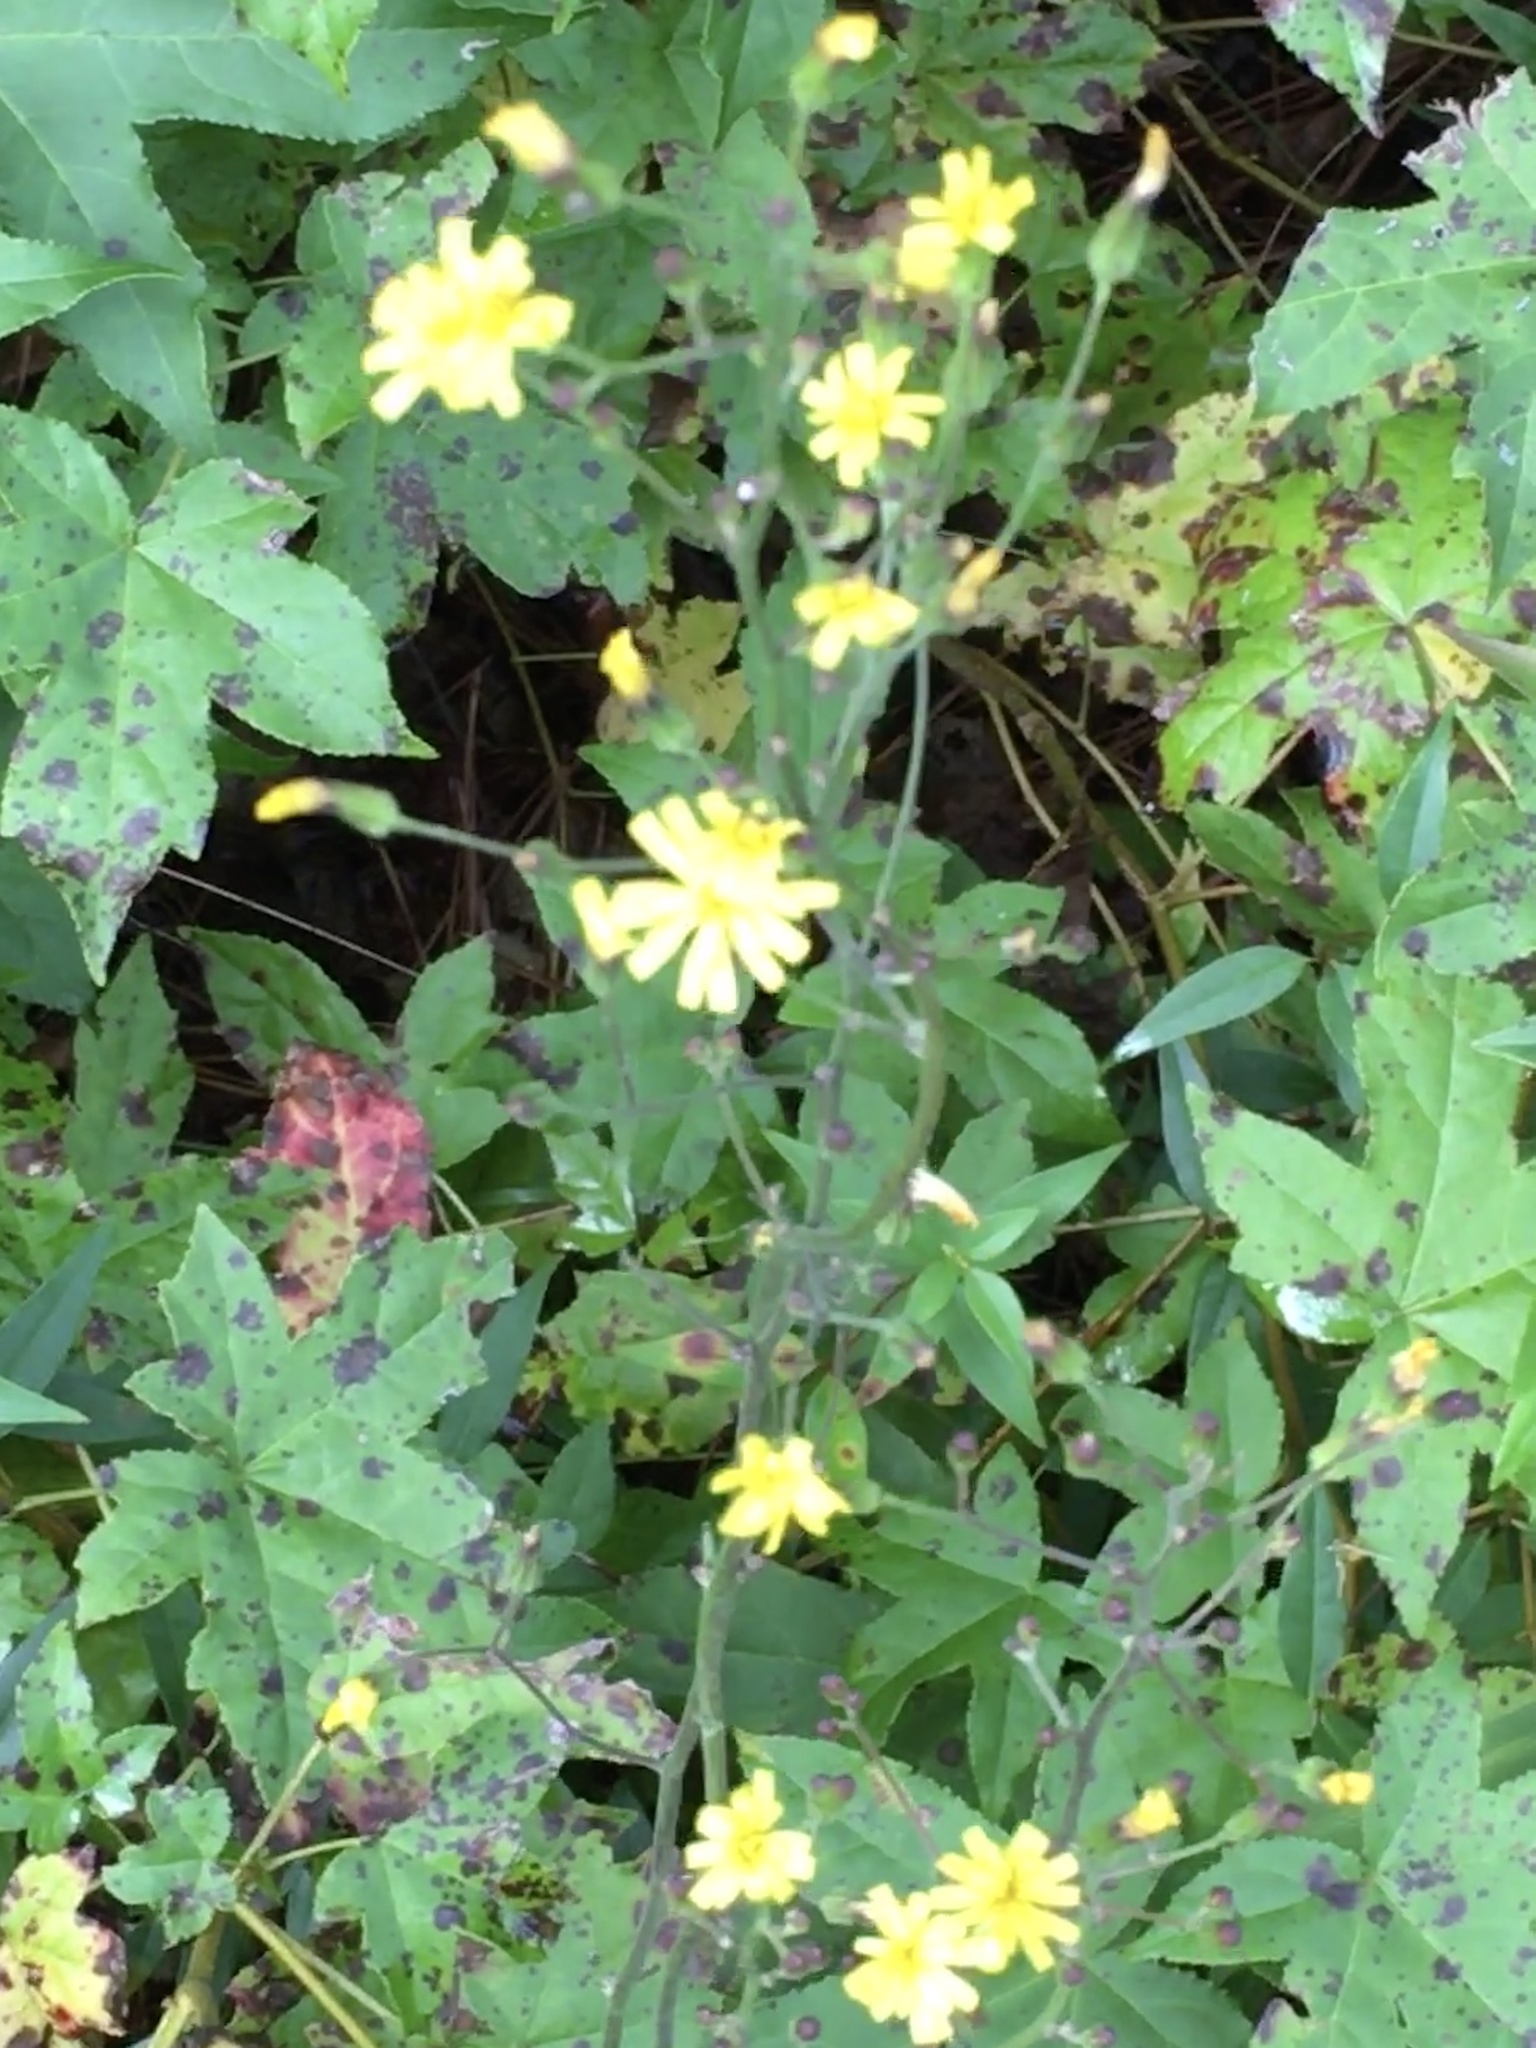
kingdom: Plantae
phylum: Tracheophyta
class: Magnoliopsida
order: Asterales
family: Asteraceae
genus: Hieracium
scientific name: Hieracium gronovii
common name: Beaked hawkweed
